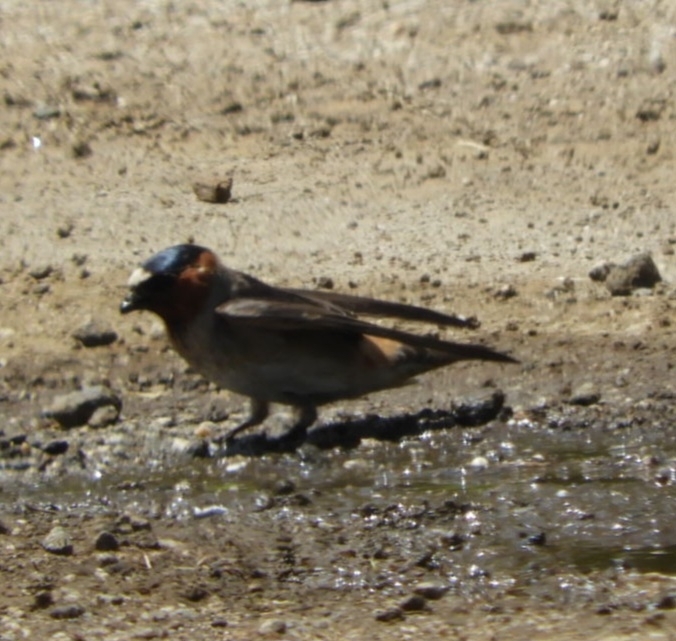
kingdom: Animalia
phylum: Chordata
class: Aves
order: Passeriformes
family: Hirundinidae
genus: Petrochelidon
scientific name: Petrochelidon pyrrhonota
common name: American cliff swallow
